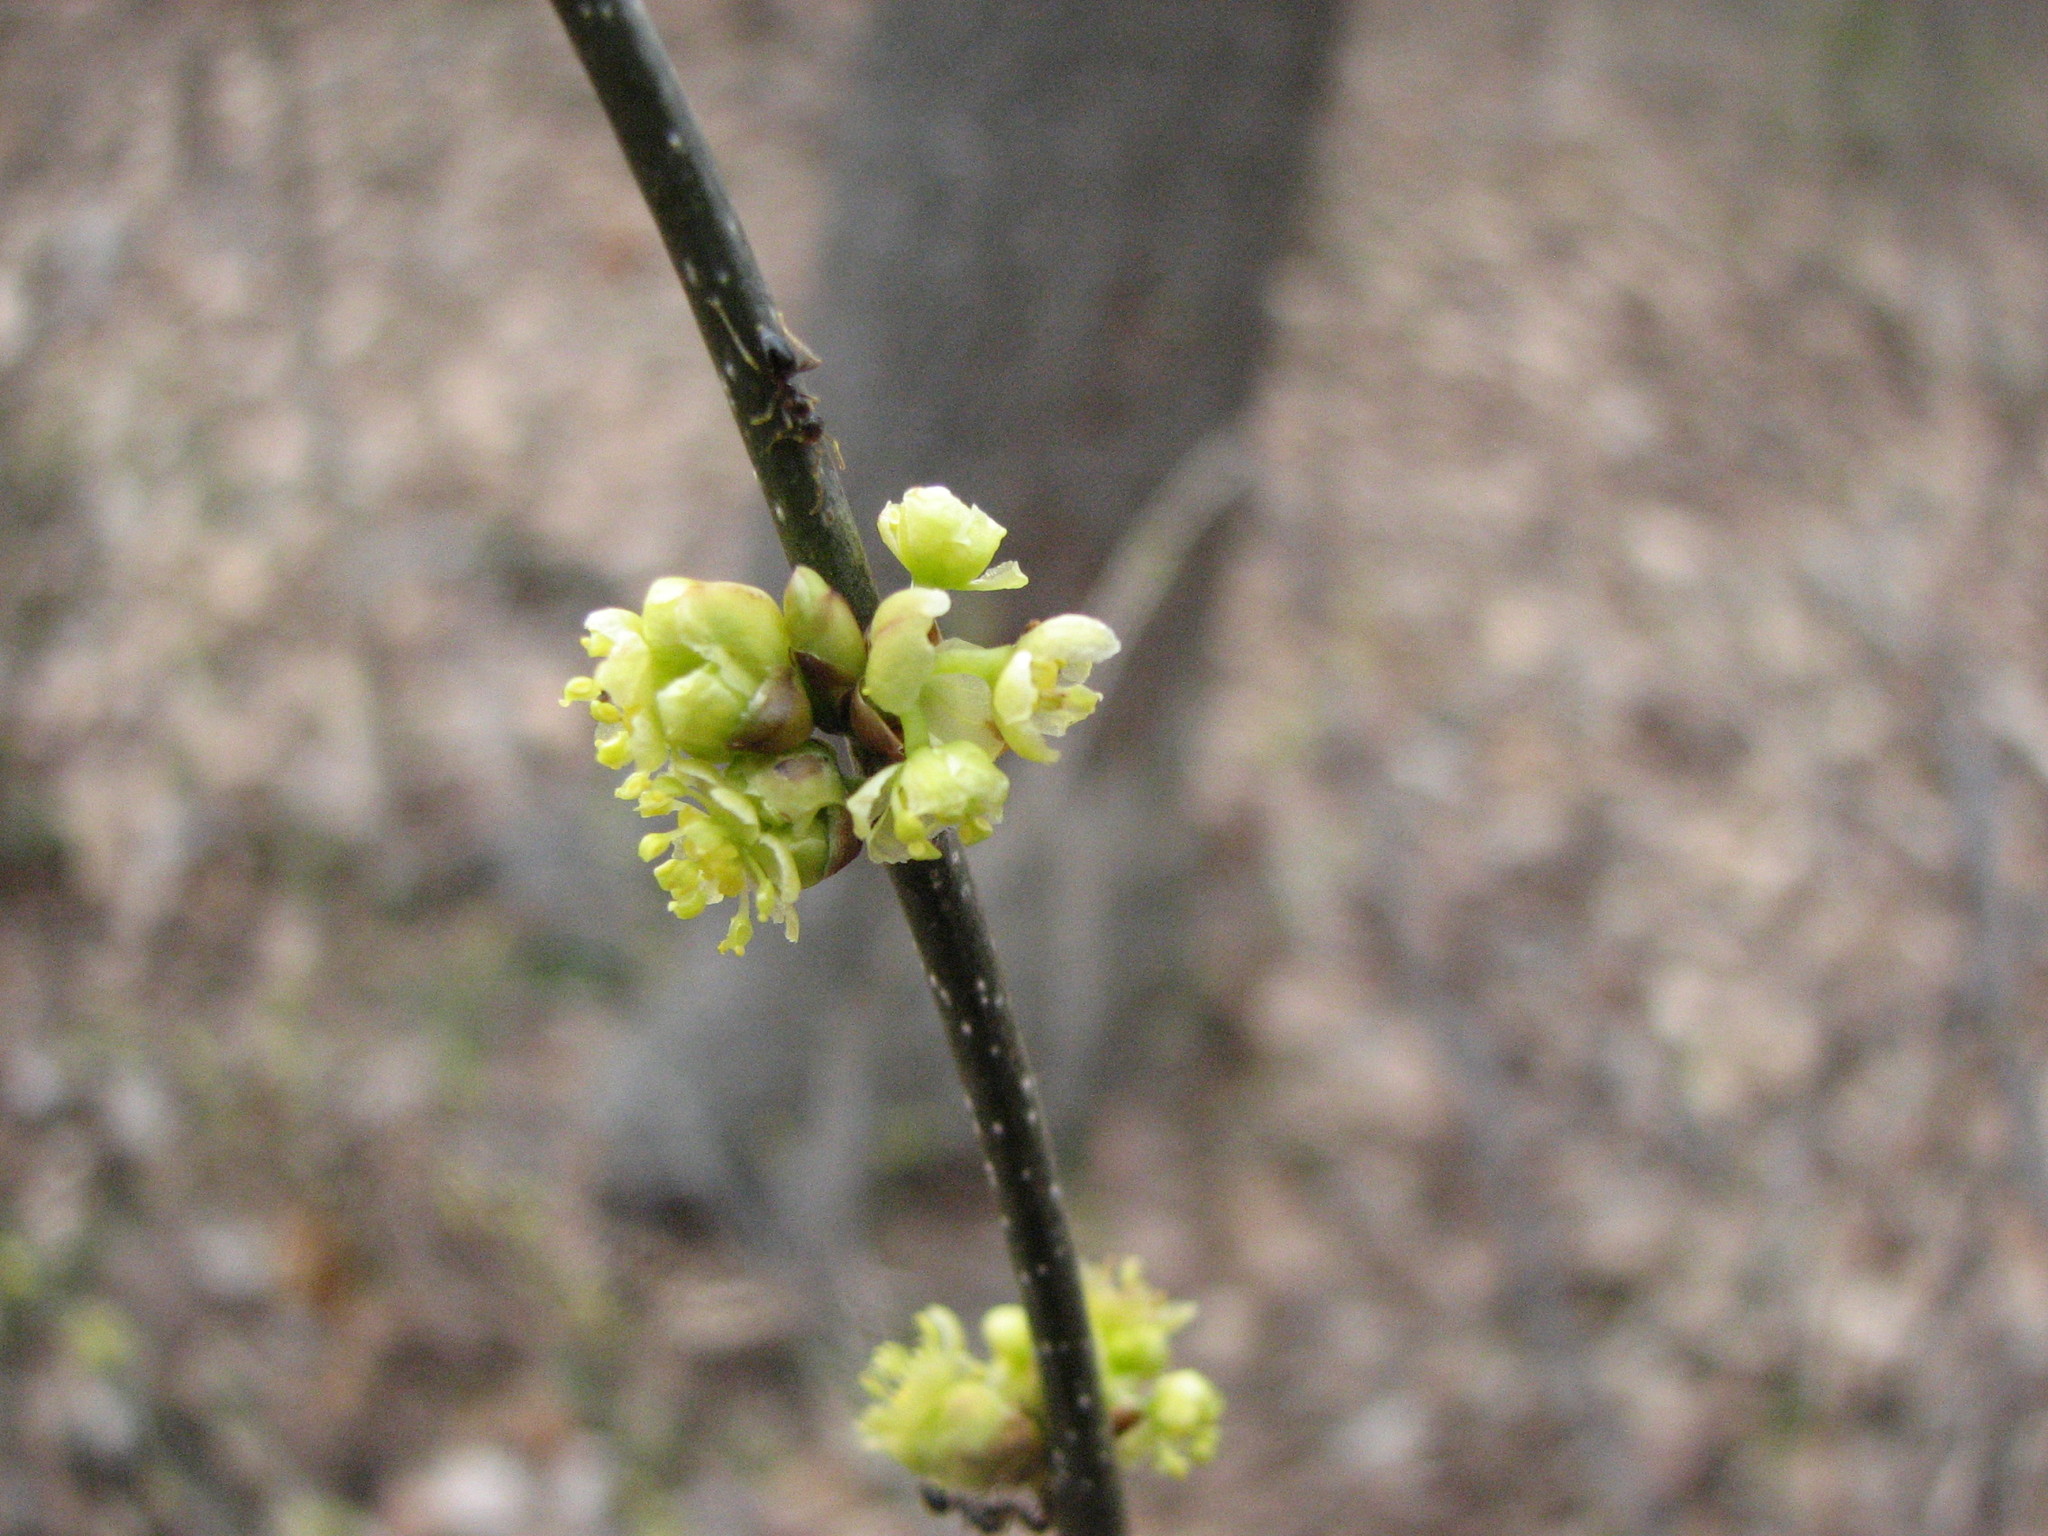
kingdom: Plantae
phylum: Tracheophyta
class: Magnoliopsida
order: Laurales
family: Lauraceae
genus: Lindera
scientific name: Lindera benzoin
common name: Spicebush
